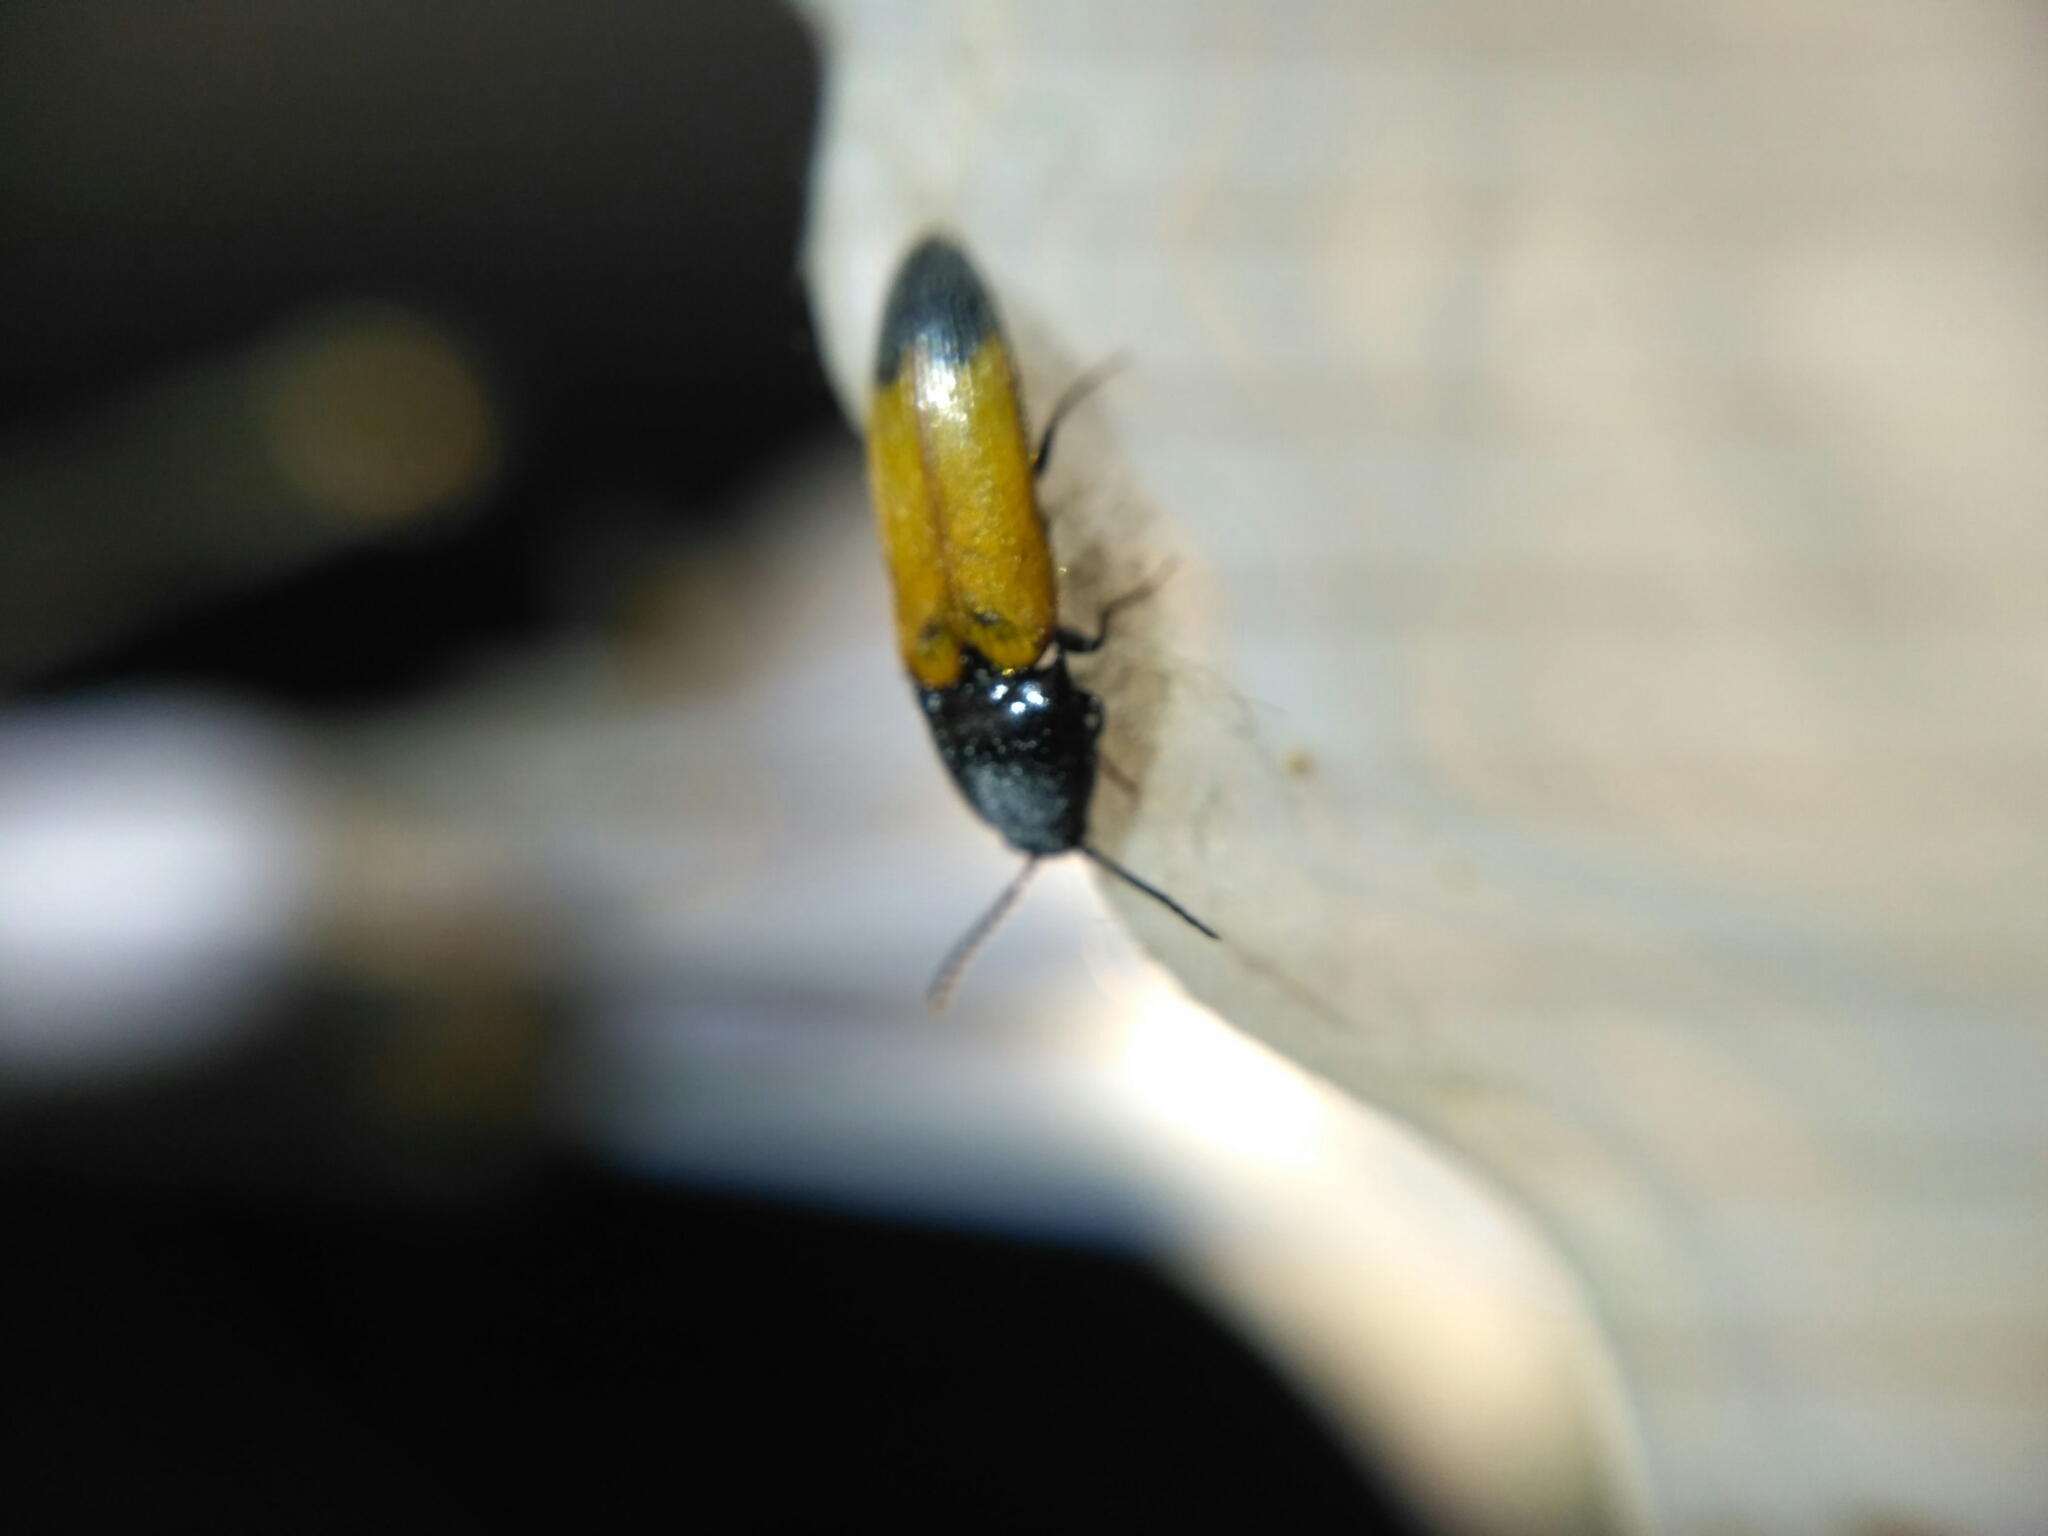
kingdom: Animalia
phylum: Arthropoda
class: Insecta
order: Coleoptera
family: Elateridae
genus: Ampedus
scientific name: Ampedus elegantulus
